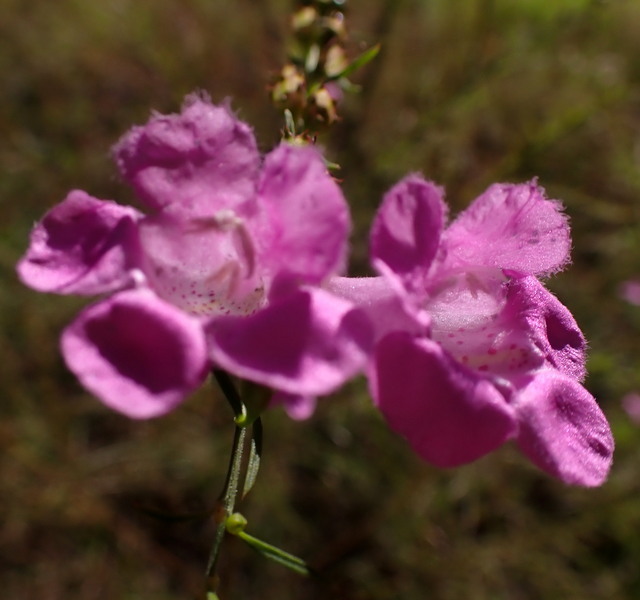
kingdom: Plantae
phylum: Tracheophyta
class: Magnoliopsida
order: Lamiales
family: Orobanchaceae
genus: Agalinis
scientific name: Agalinis fasciculata
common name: Beach false foxglove
